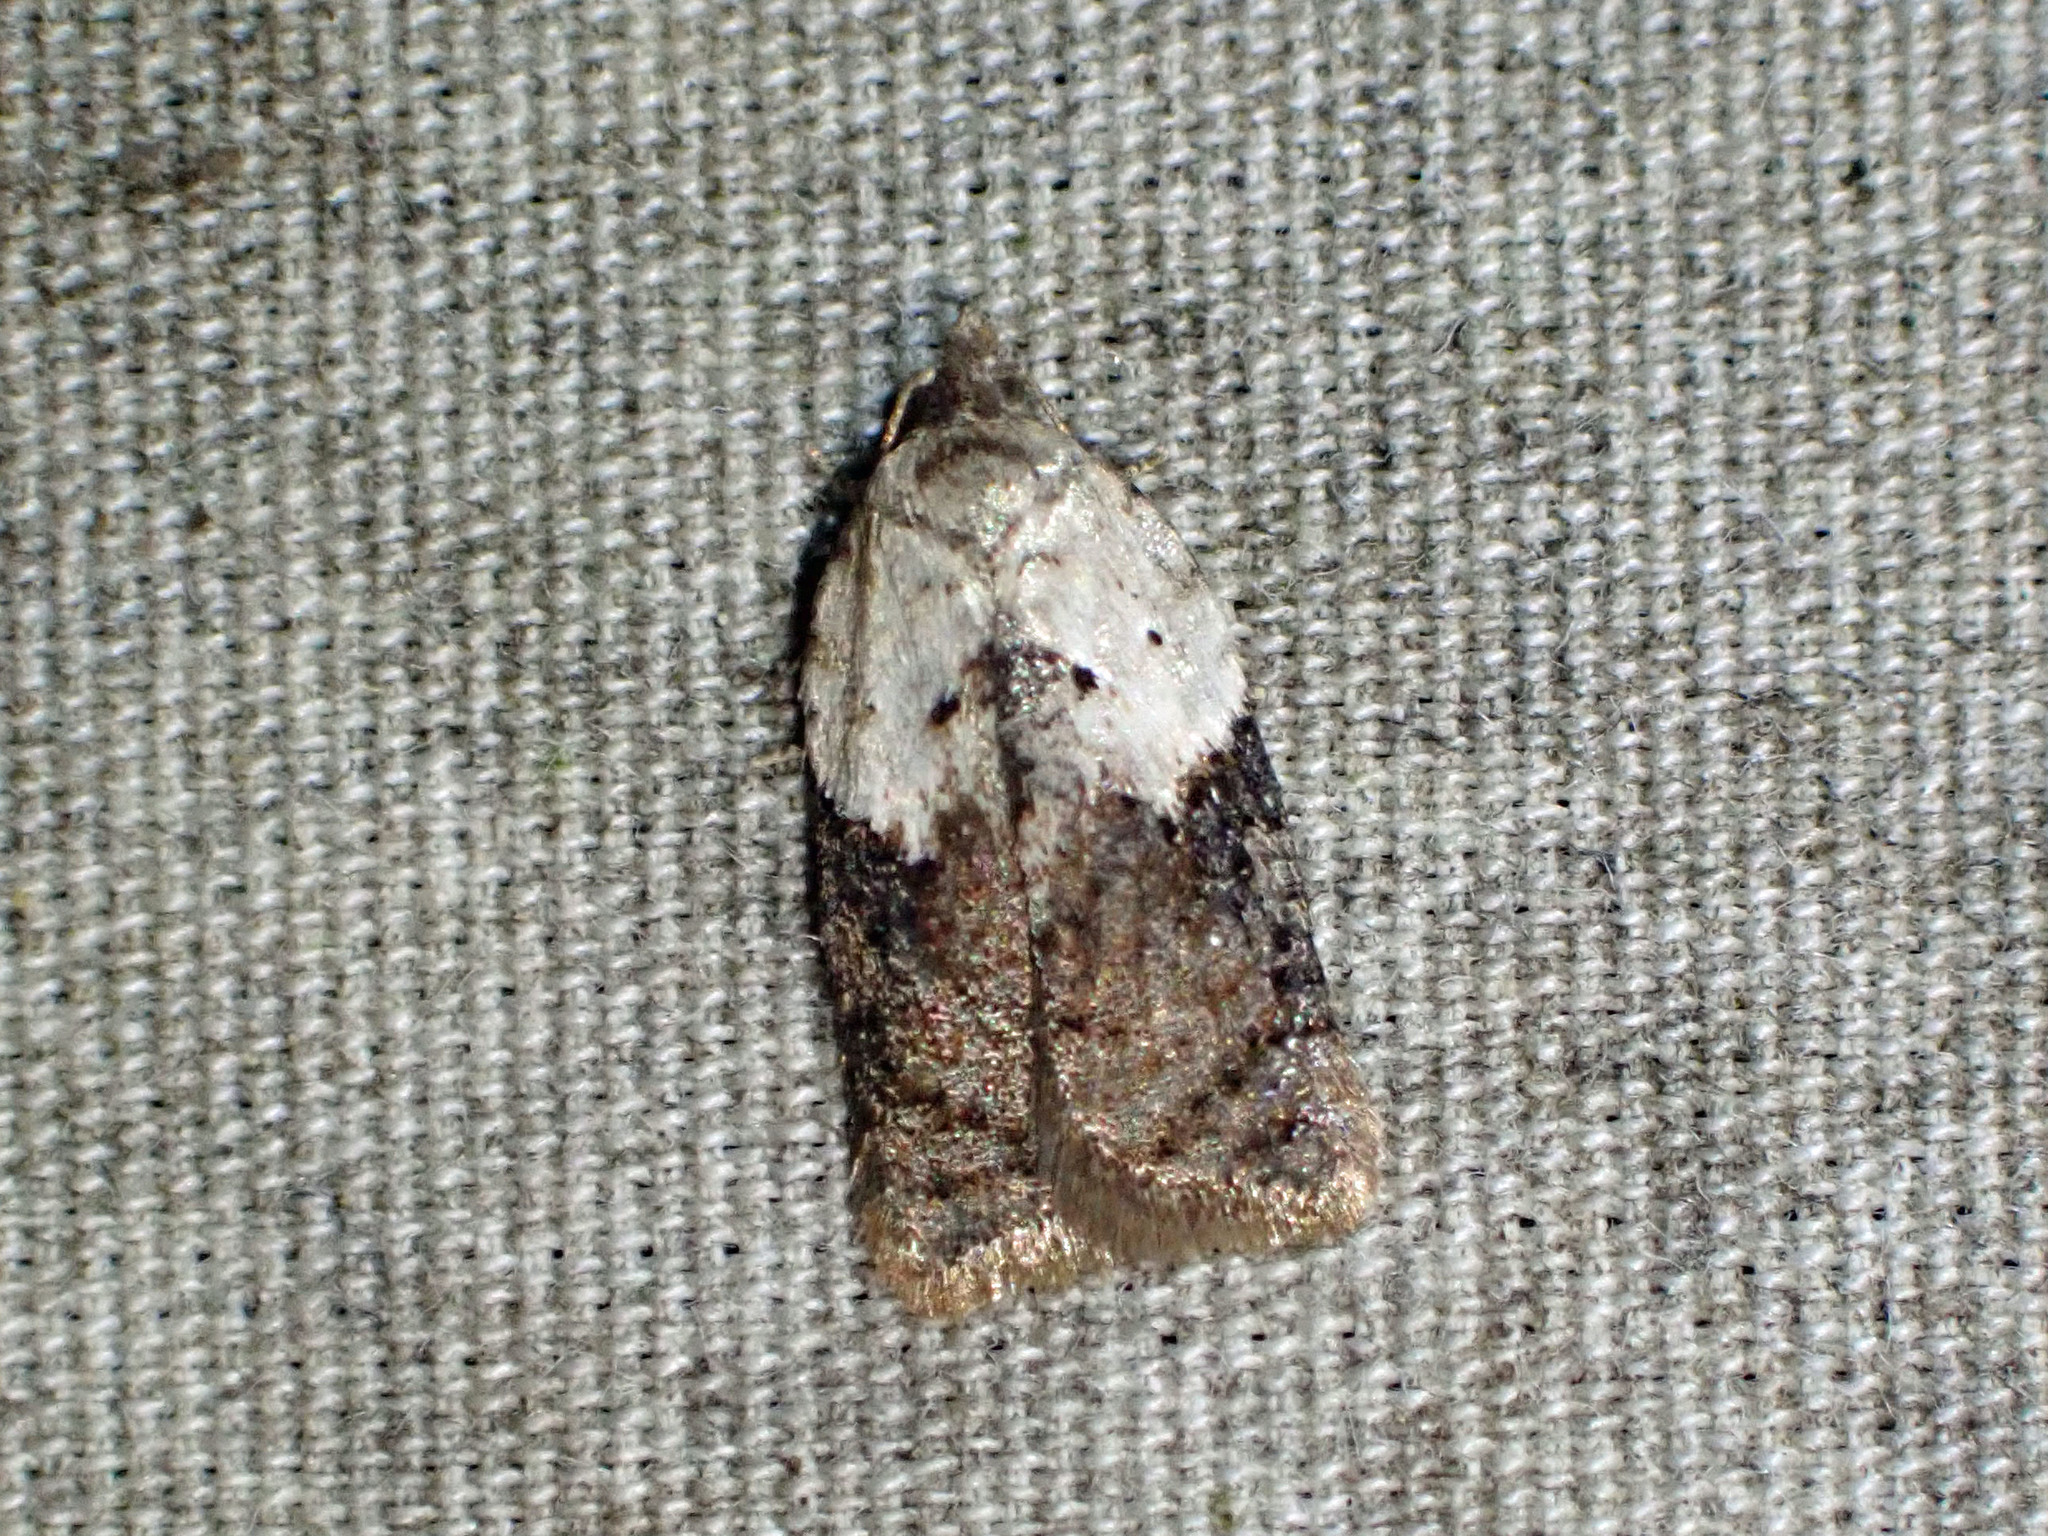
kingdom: Animalia
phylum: Arthropoda
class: Insecta
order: Lepidoptera
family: Tortricidae
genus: Acleris
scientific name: Acleris braunana
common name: Alder leafroller
